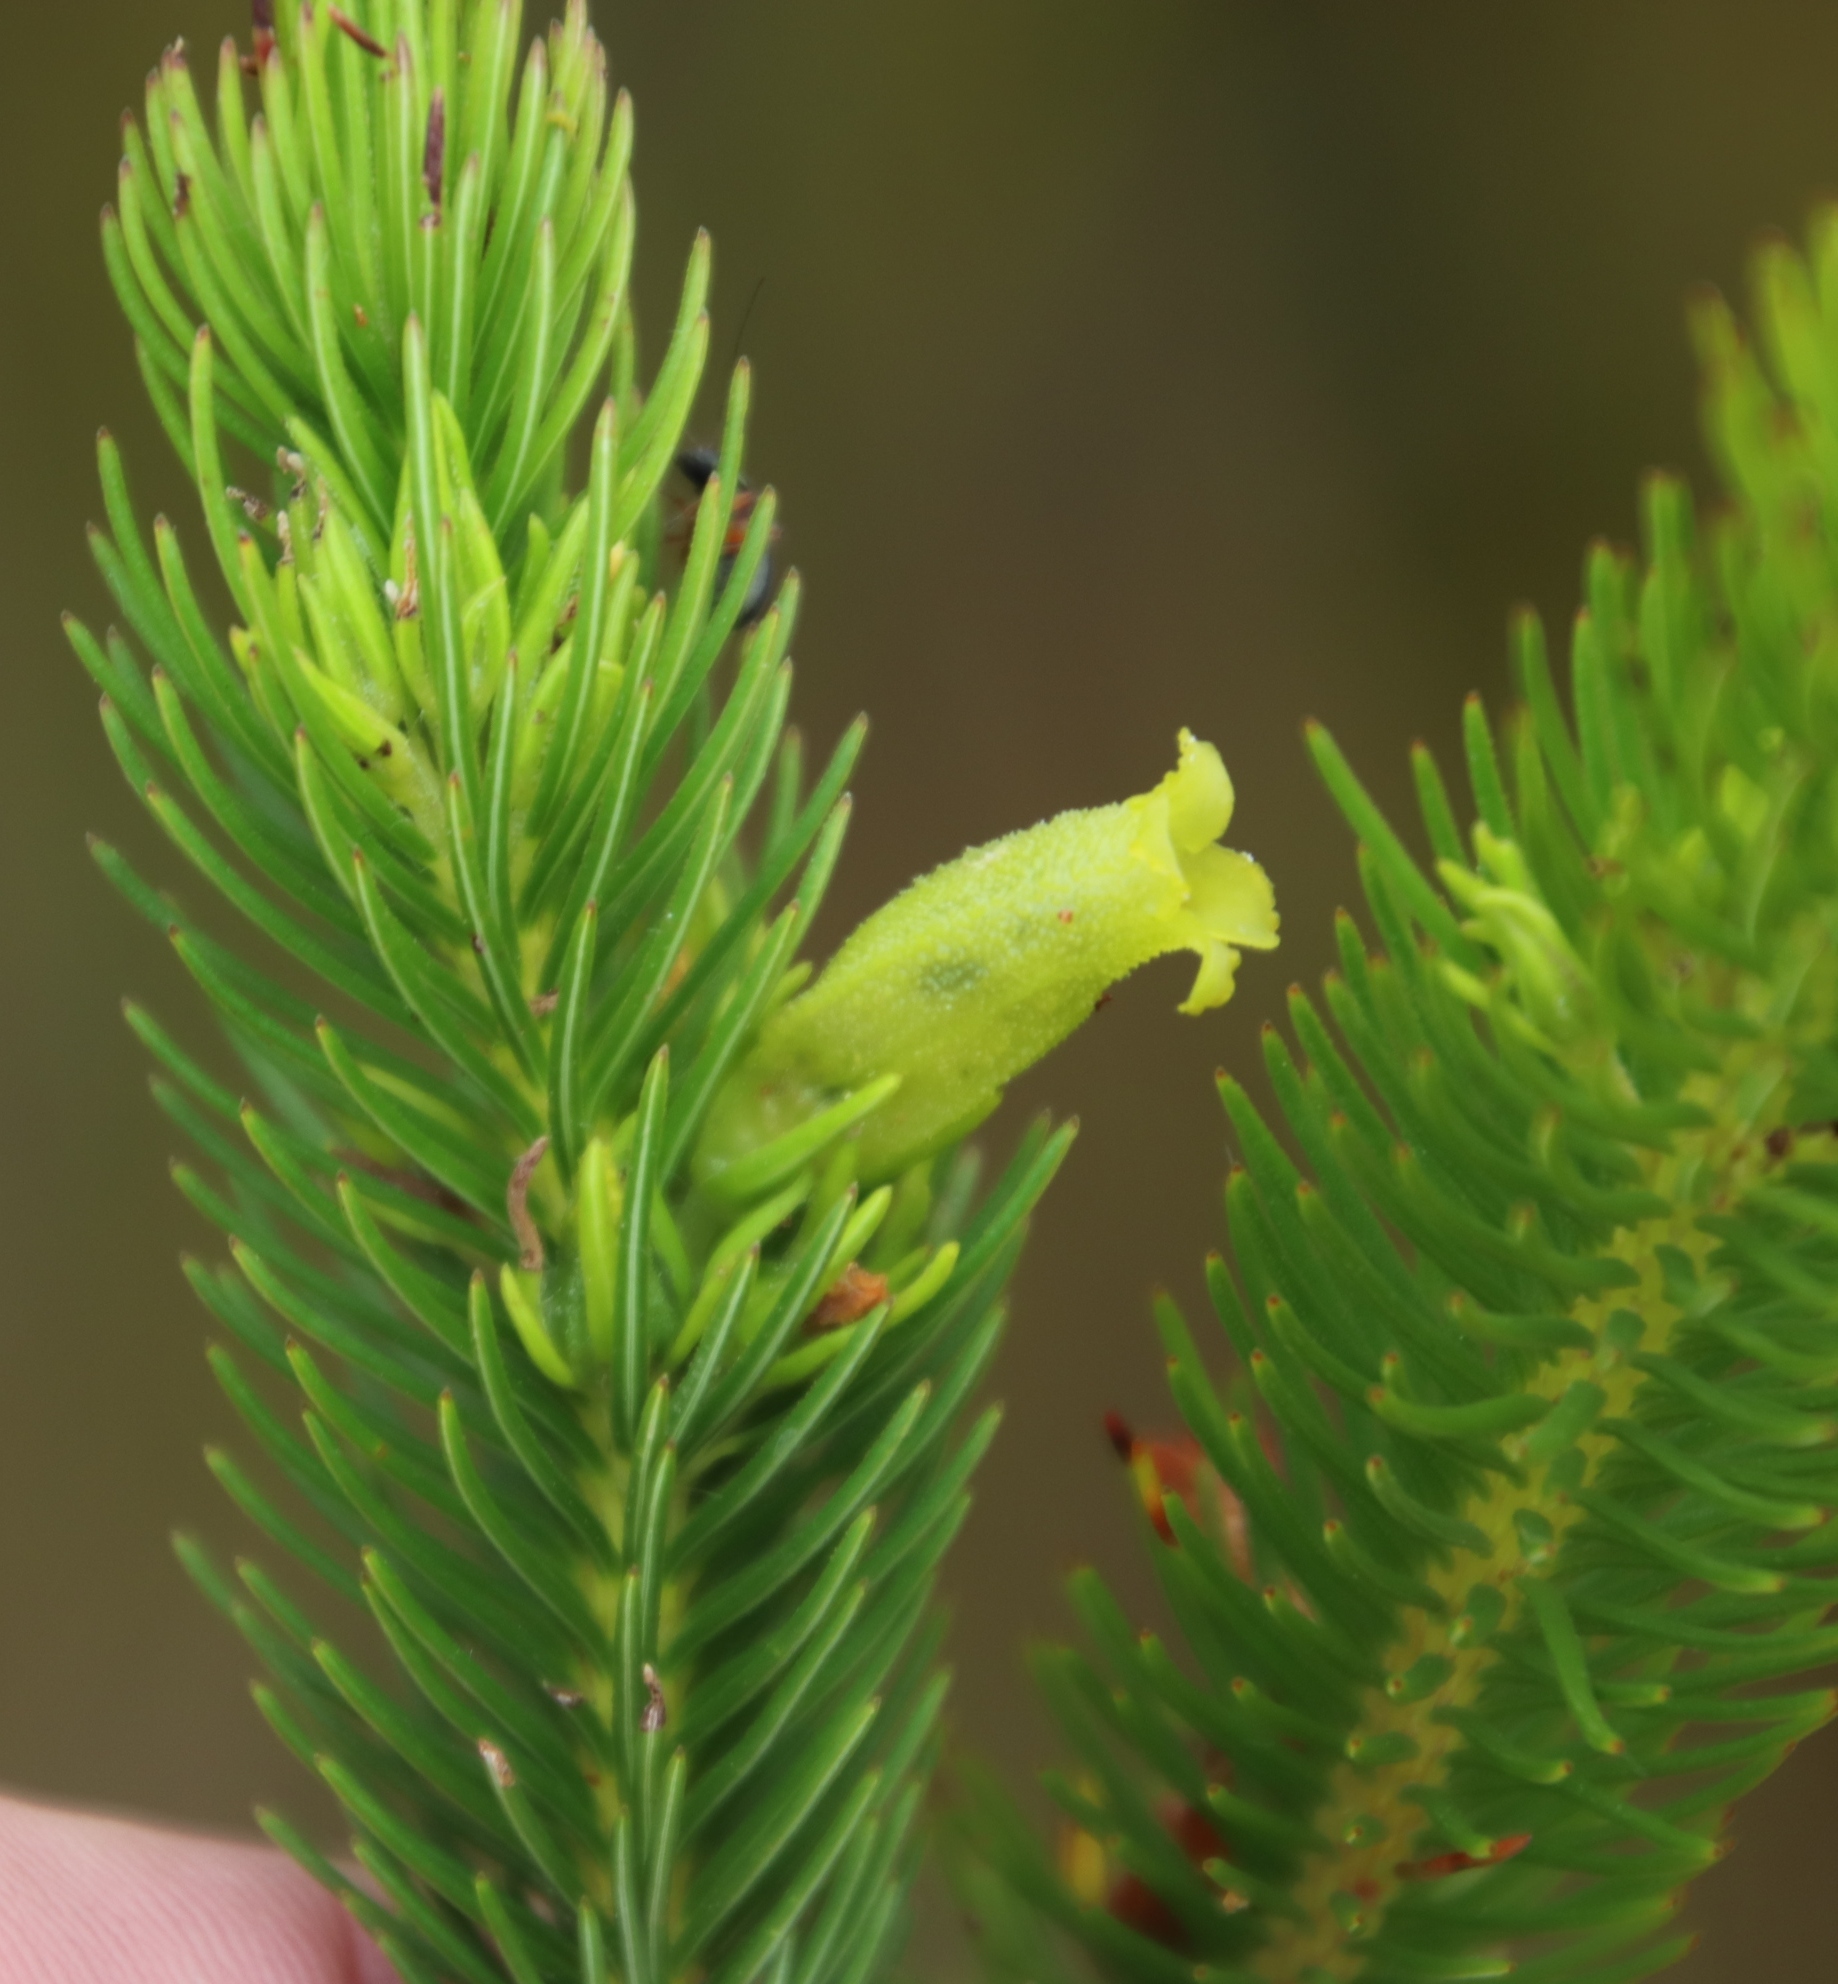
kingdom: Plantae
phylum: Tracheophyta
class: Magnoliopsida
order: Ericales
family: Ericaceae
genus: Erica
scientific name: Erica viscaria
